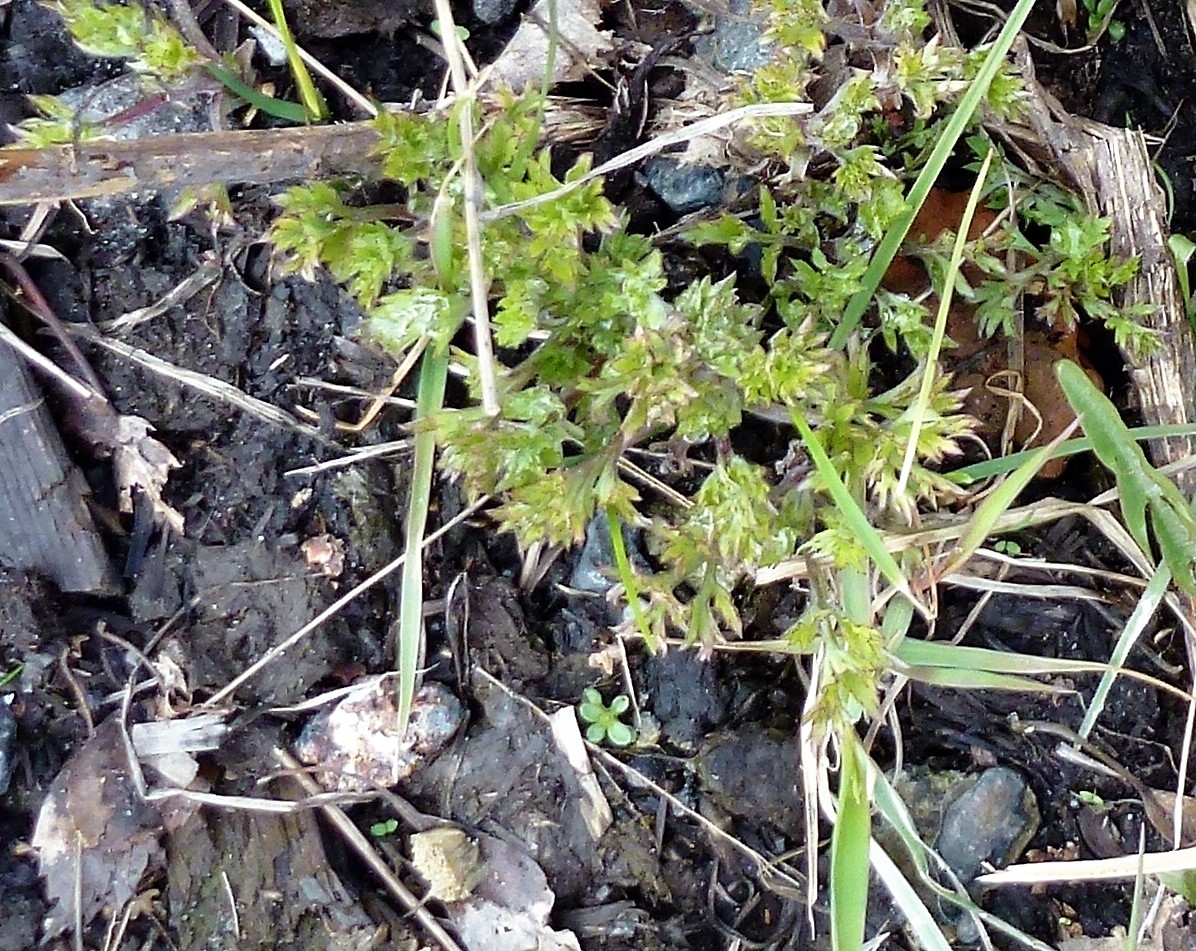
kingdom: Plantae
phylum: Tracheophyta
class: Magnoliopsida
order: Asterales
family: Asteraceae
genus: Artemisia
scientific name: Artemisia vulgaris
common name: Mugwort
